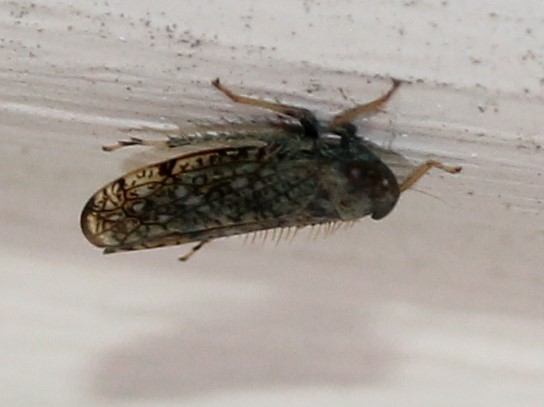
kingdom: Animalia
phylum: Arthropoda
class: Insecta
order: Hemiptera
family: Cicadellidae
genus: Orientus
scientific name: Orientus ishidae
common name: Japanese leafhopper
